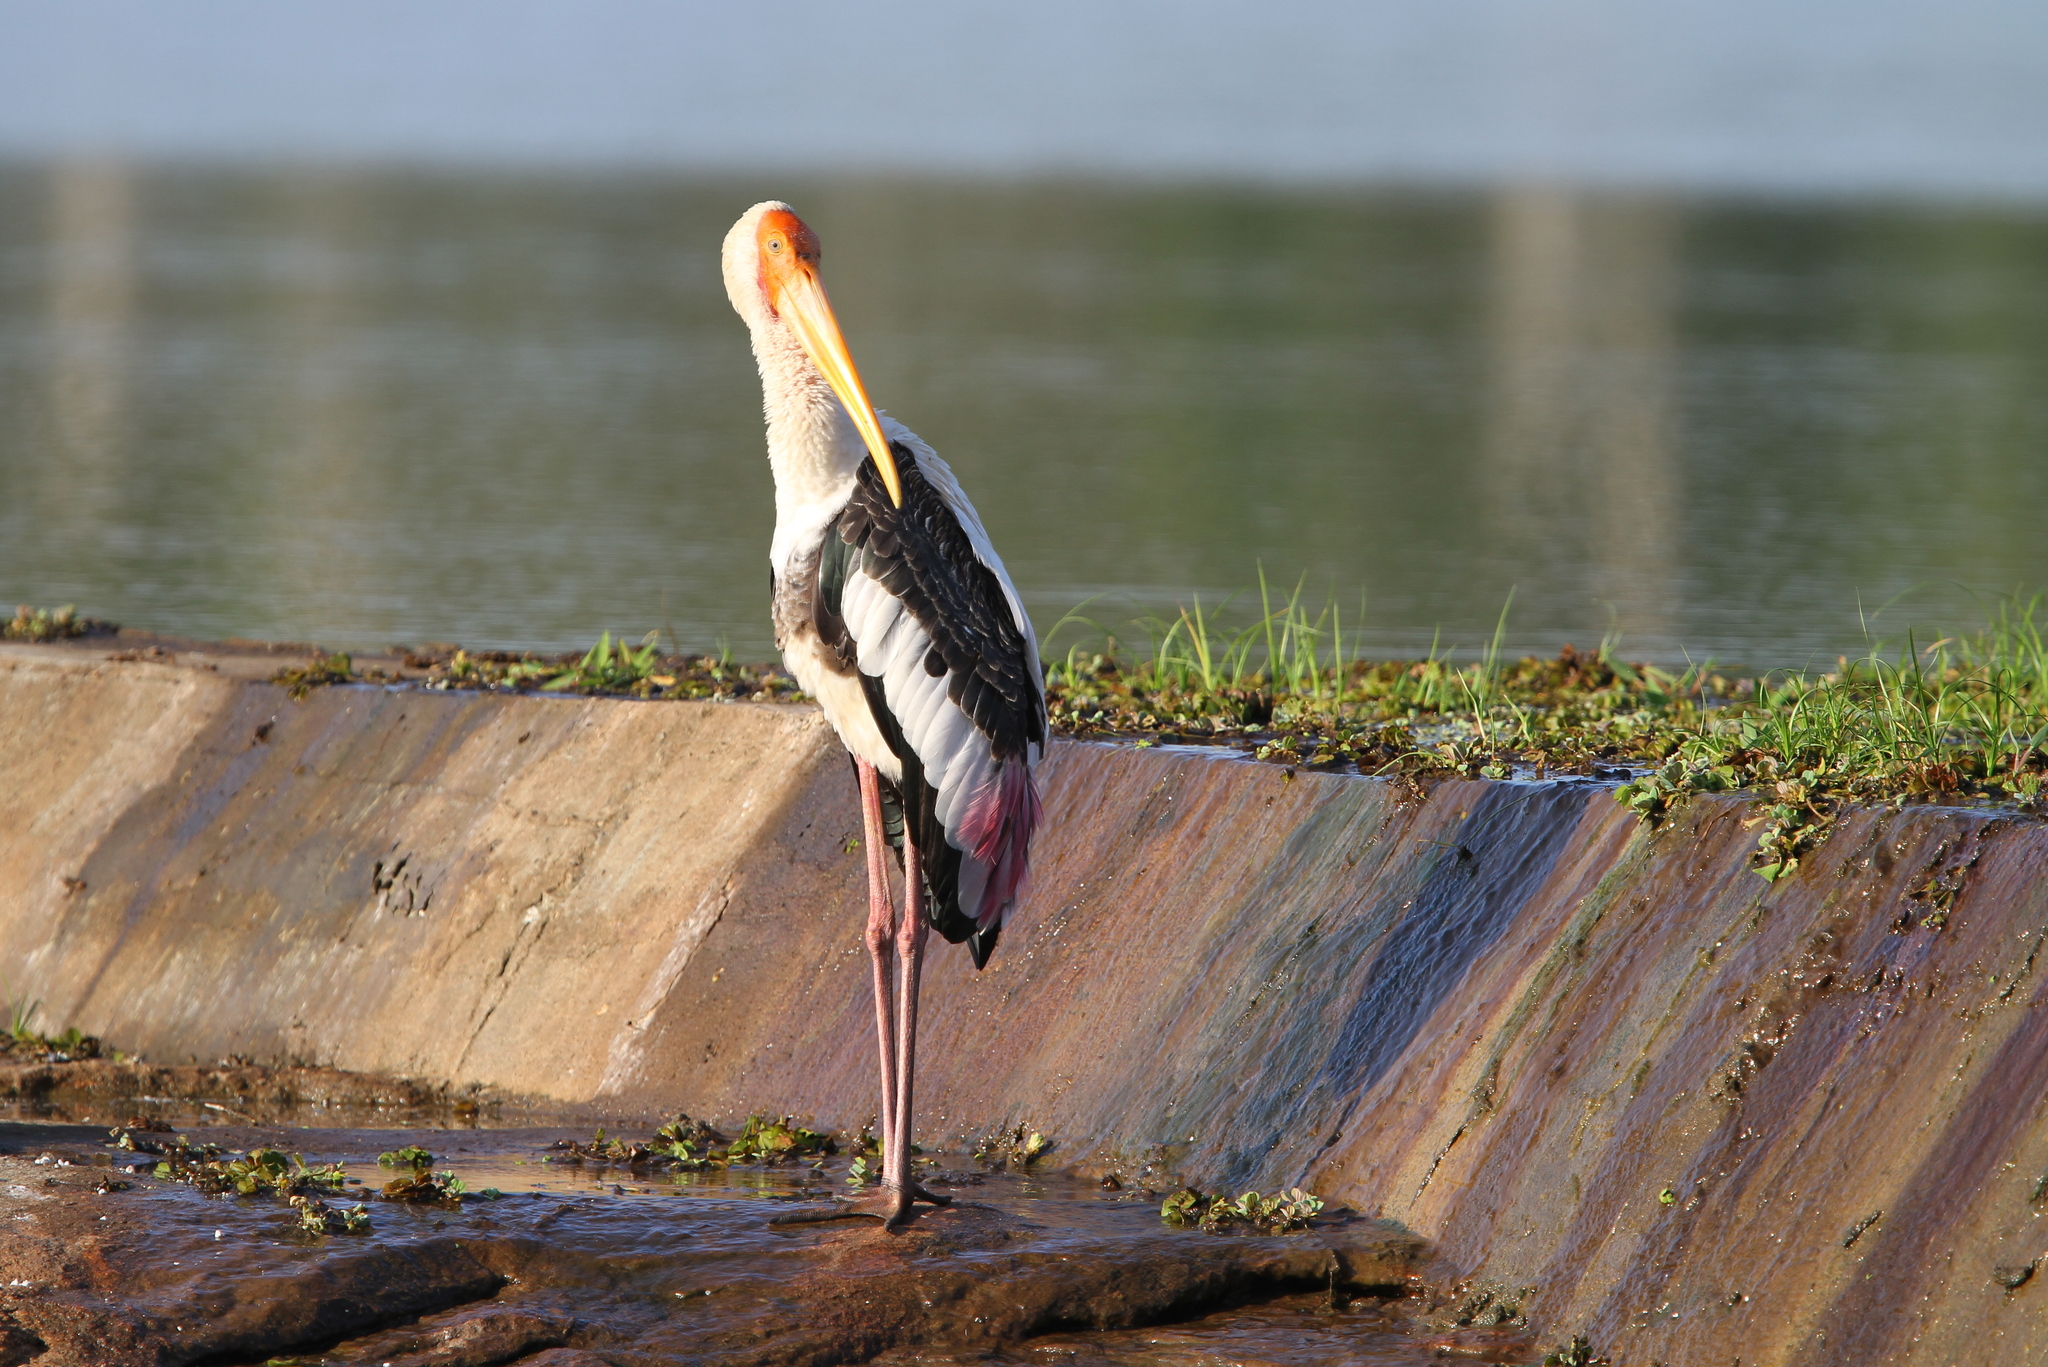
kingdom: Animalia
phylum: Chordata
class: Aves
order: Ciconiiformes
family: Ciconiidae
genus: Mycteria
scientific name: Mycteria leucocephala
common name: Painted stork
